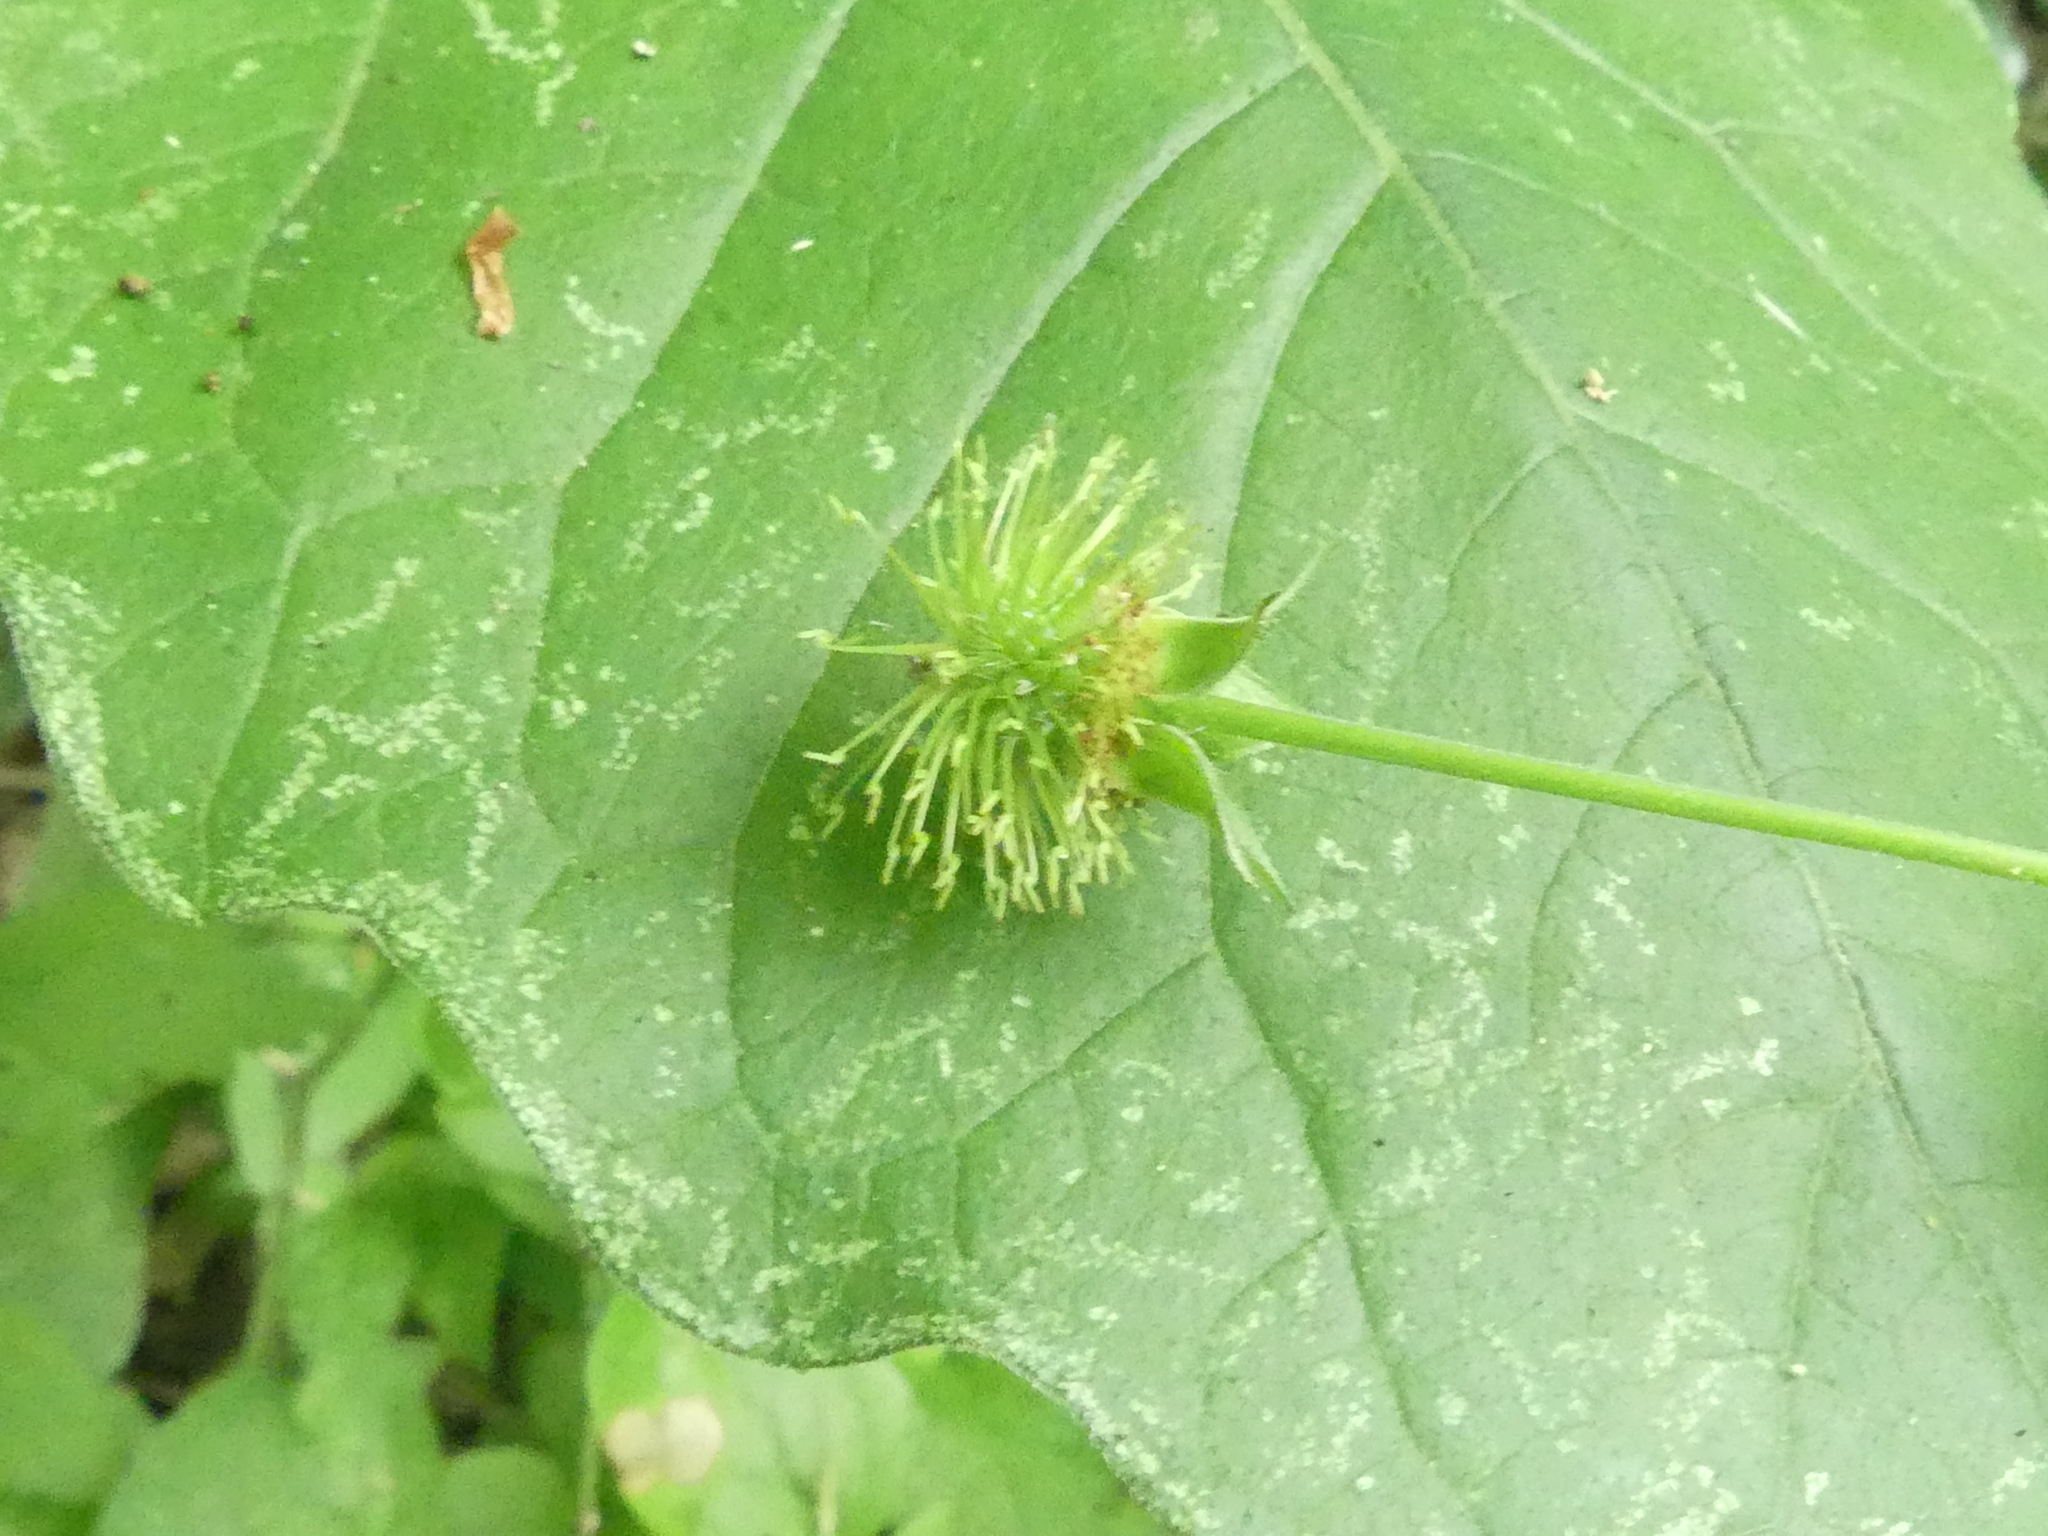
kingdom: Plantae
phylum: Tracheophyta
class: Magnoliopsida
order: Rosales
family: Rosaceae
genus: Geum
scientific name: Geum canadense
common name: White avens
